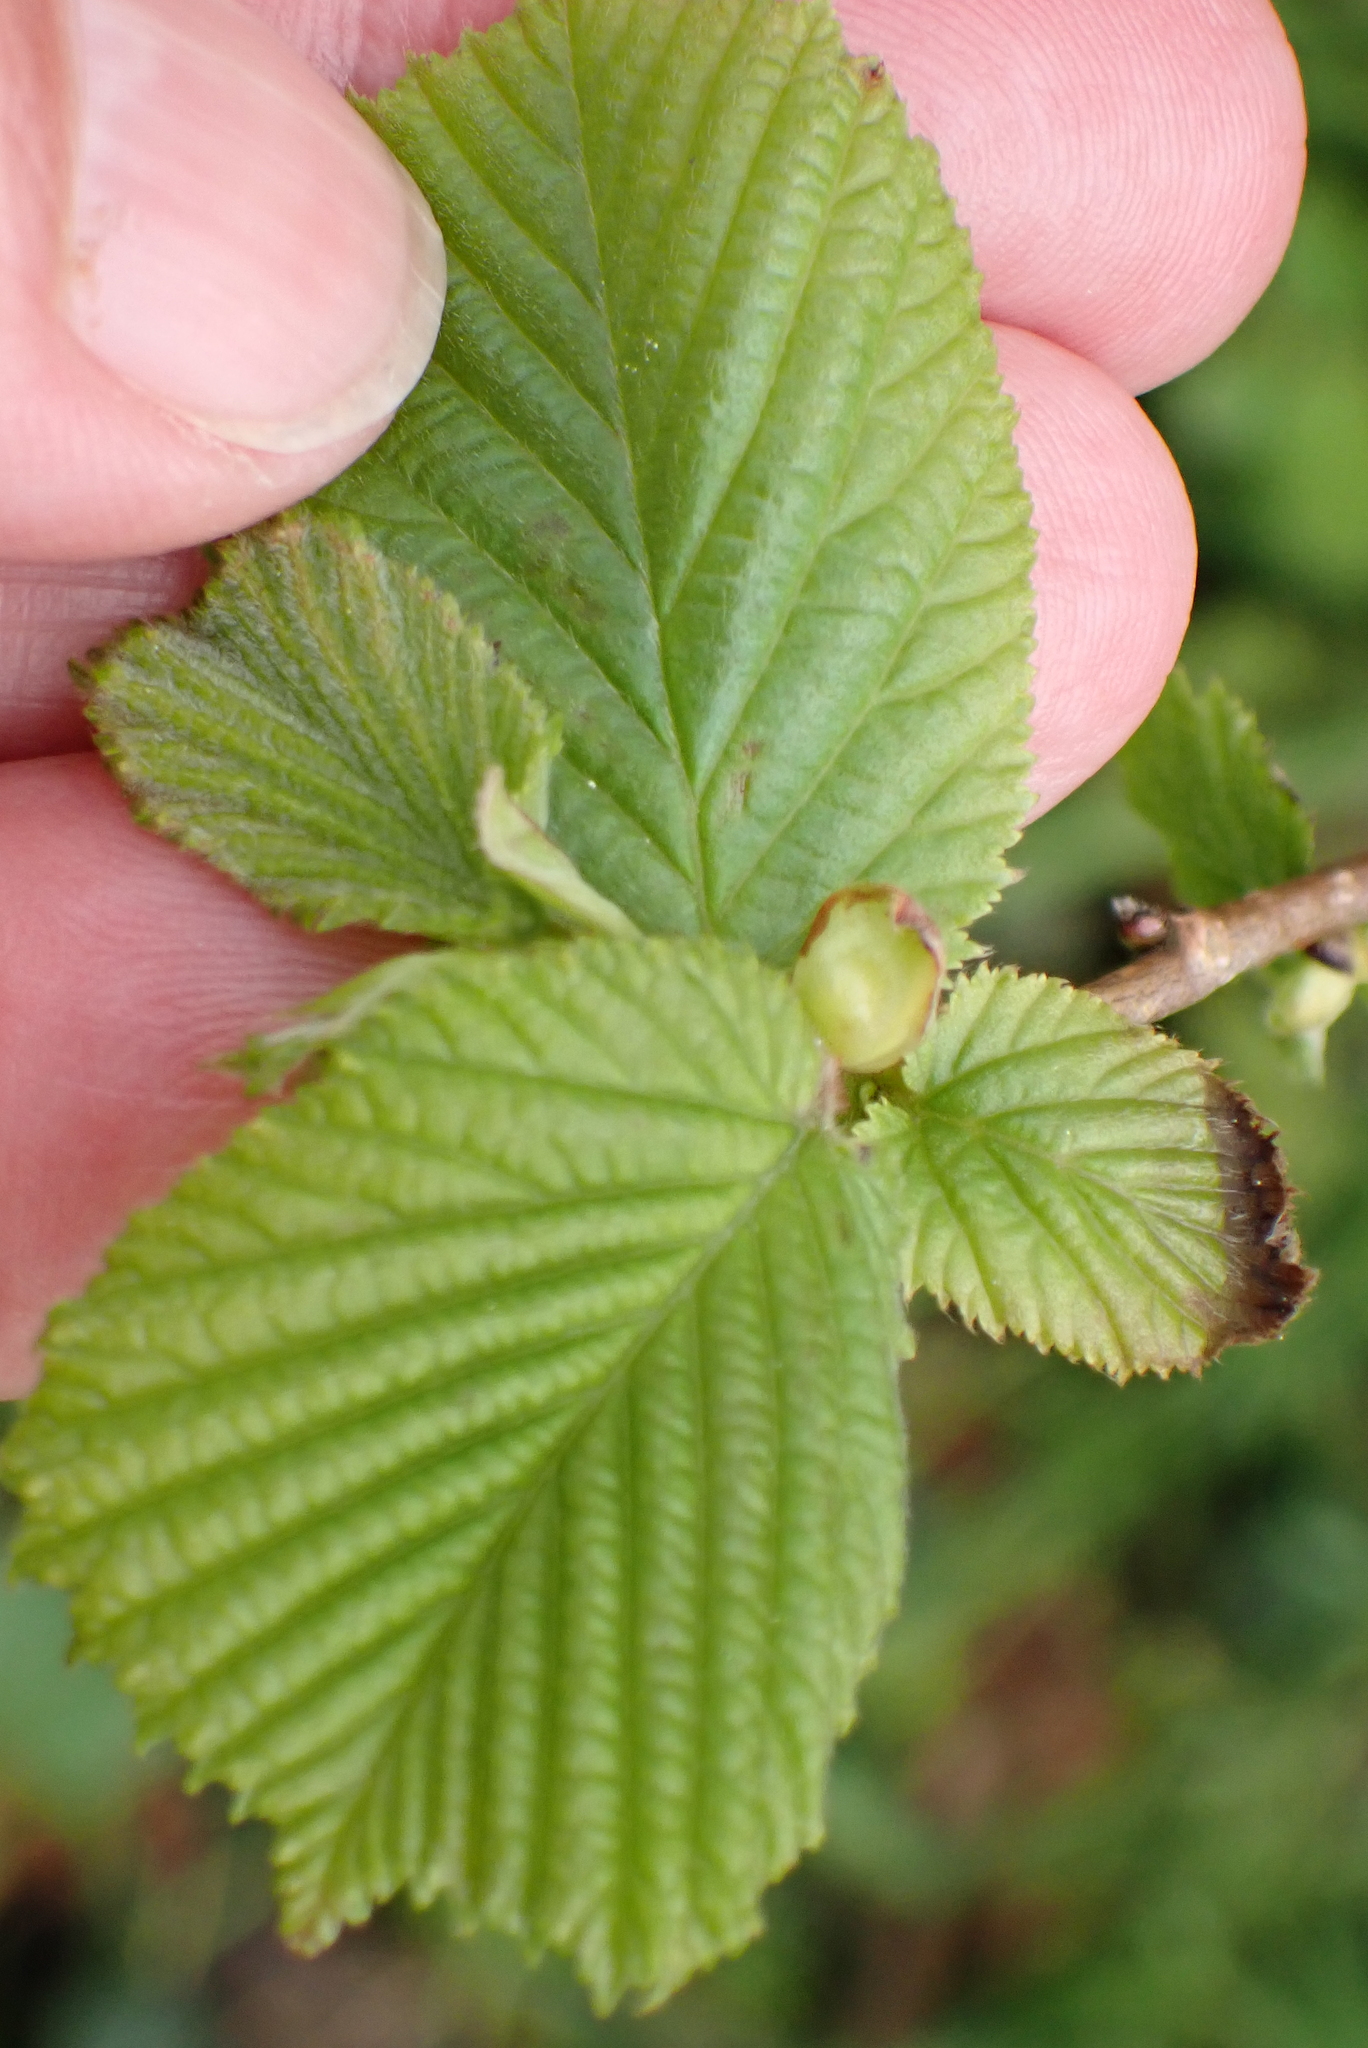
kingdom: Plantae
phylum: Tracheophyta
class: Magnoliopsida
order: Fagales
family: Betulaceae
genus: Corylus
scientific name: Corylus avellana
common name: European hazel
